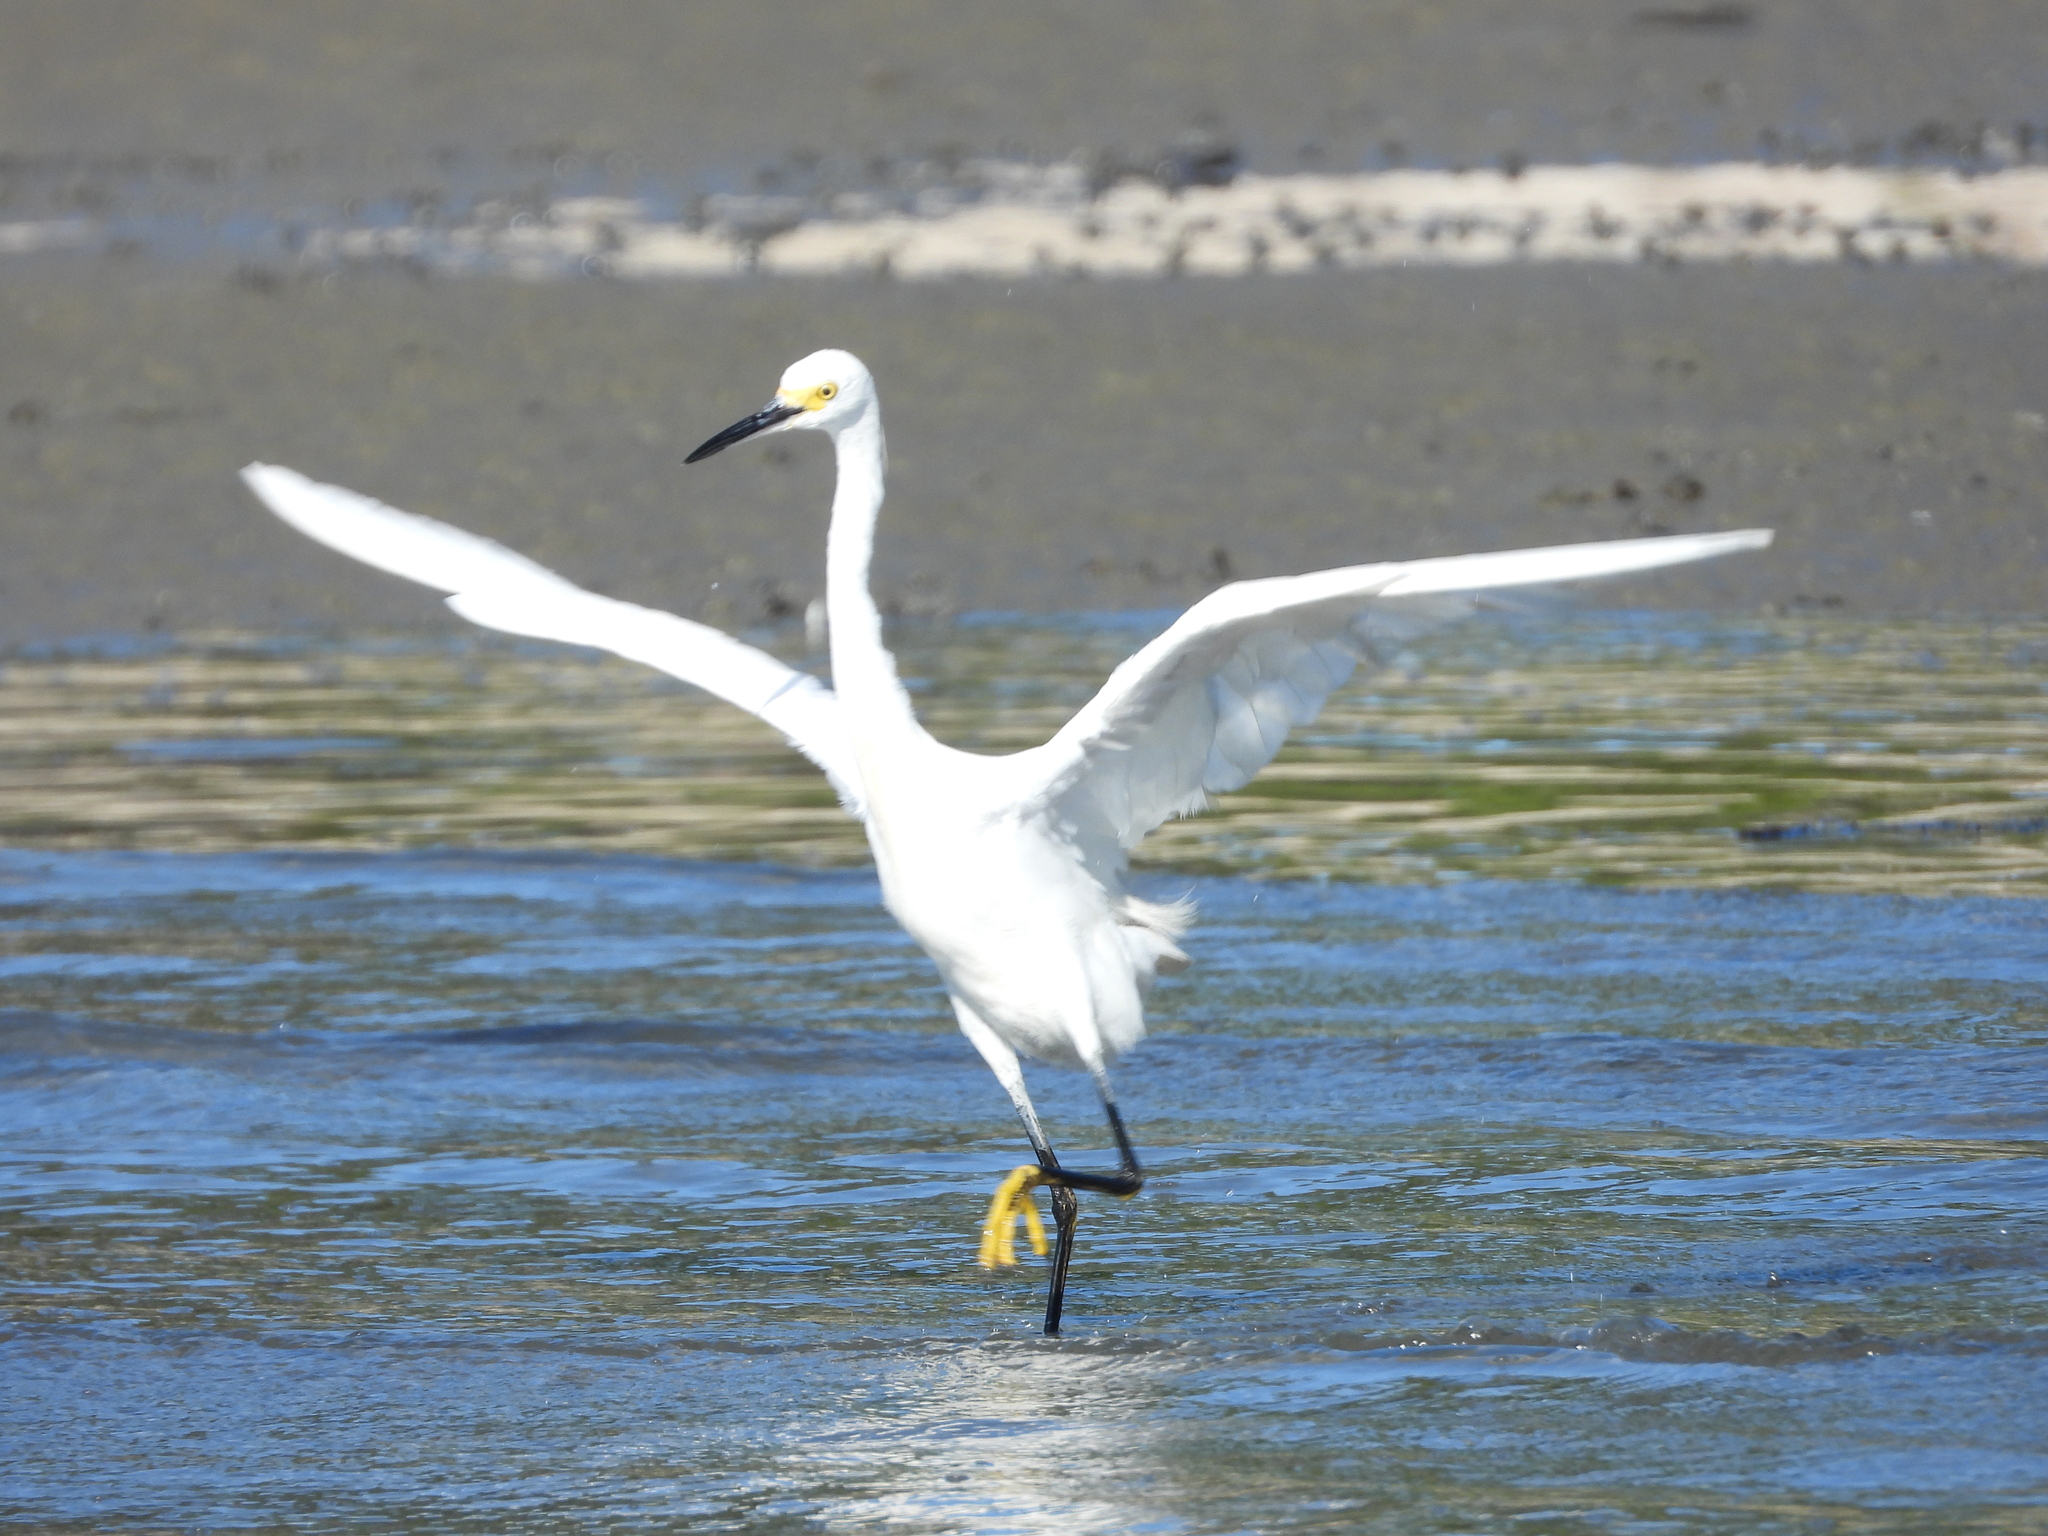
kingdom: Animalia
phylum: Chordata
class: Aves
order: Pelecaniformes
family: Ardeidae
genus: Egretta
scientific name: Egretta thula
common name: Snowy egret
